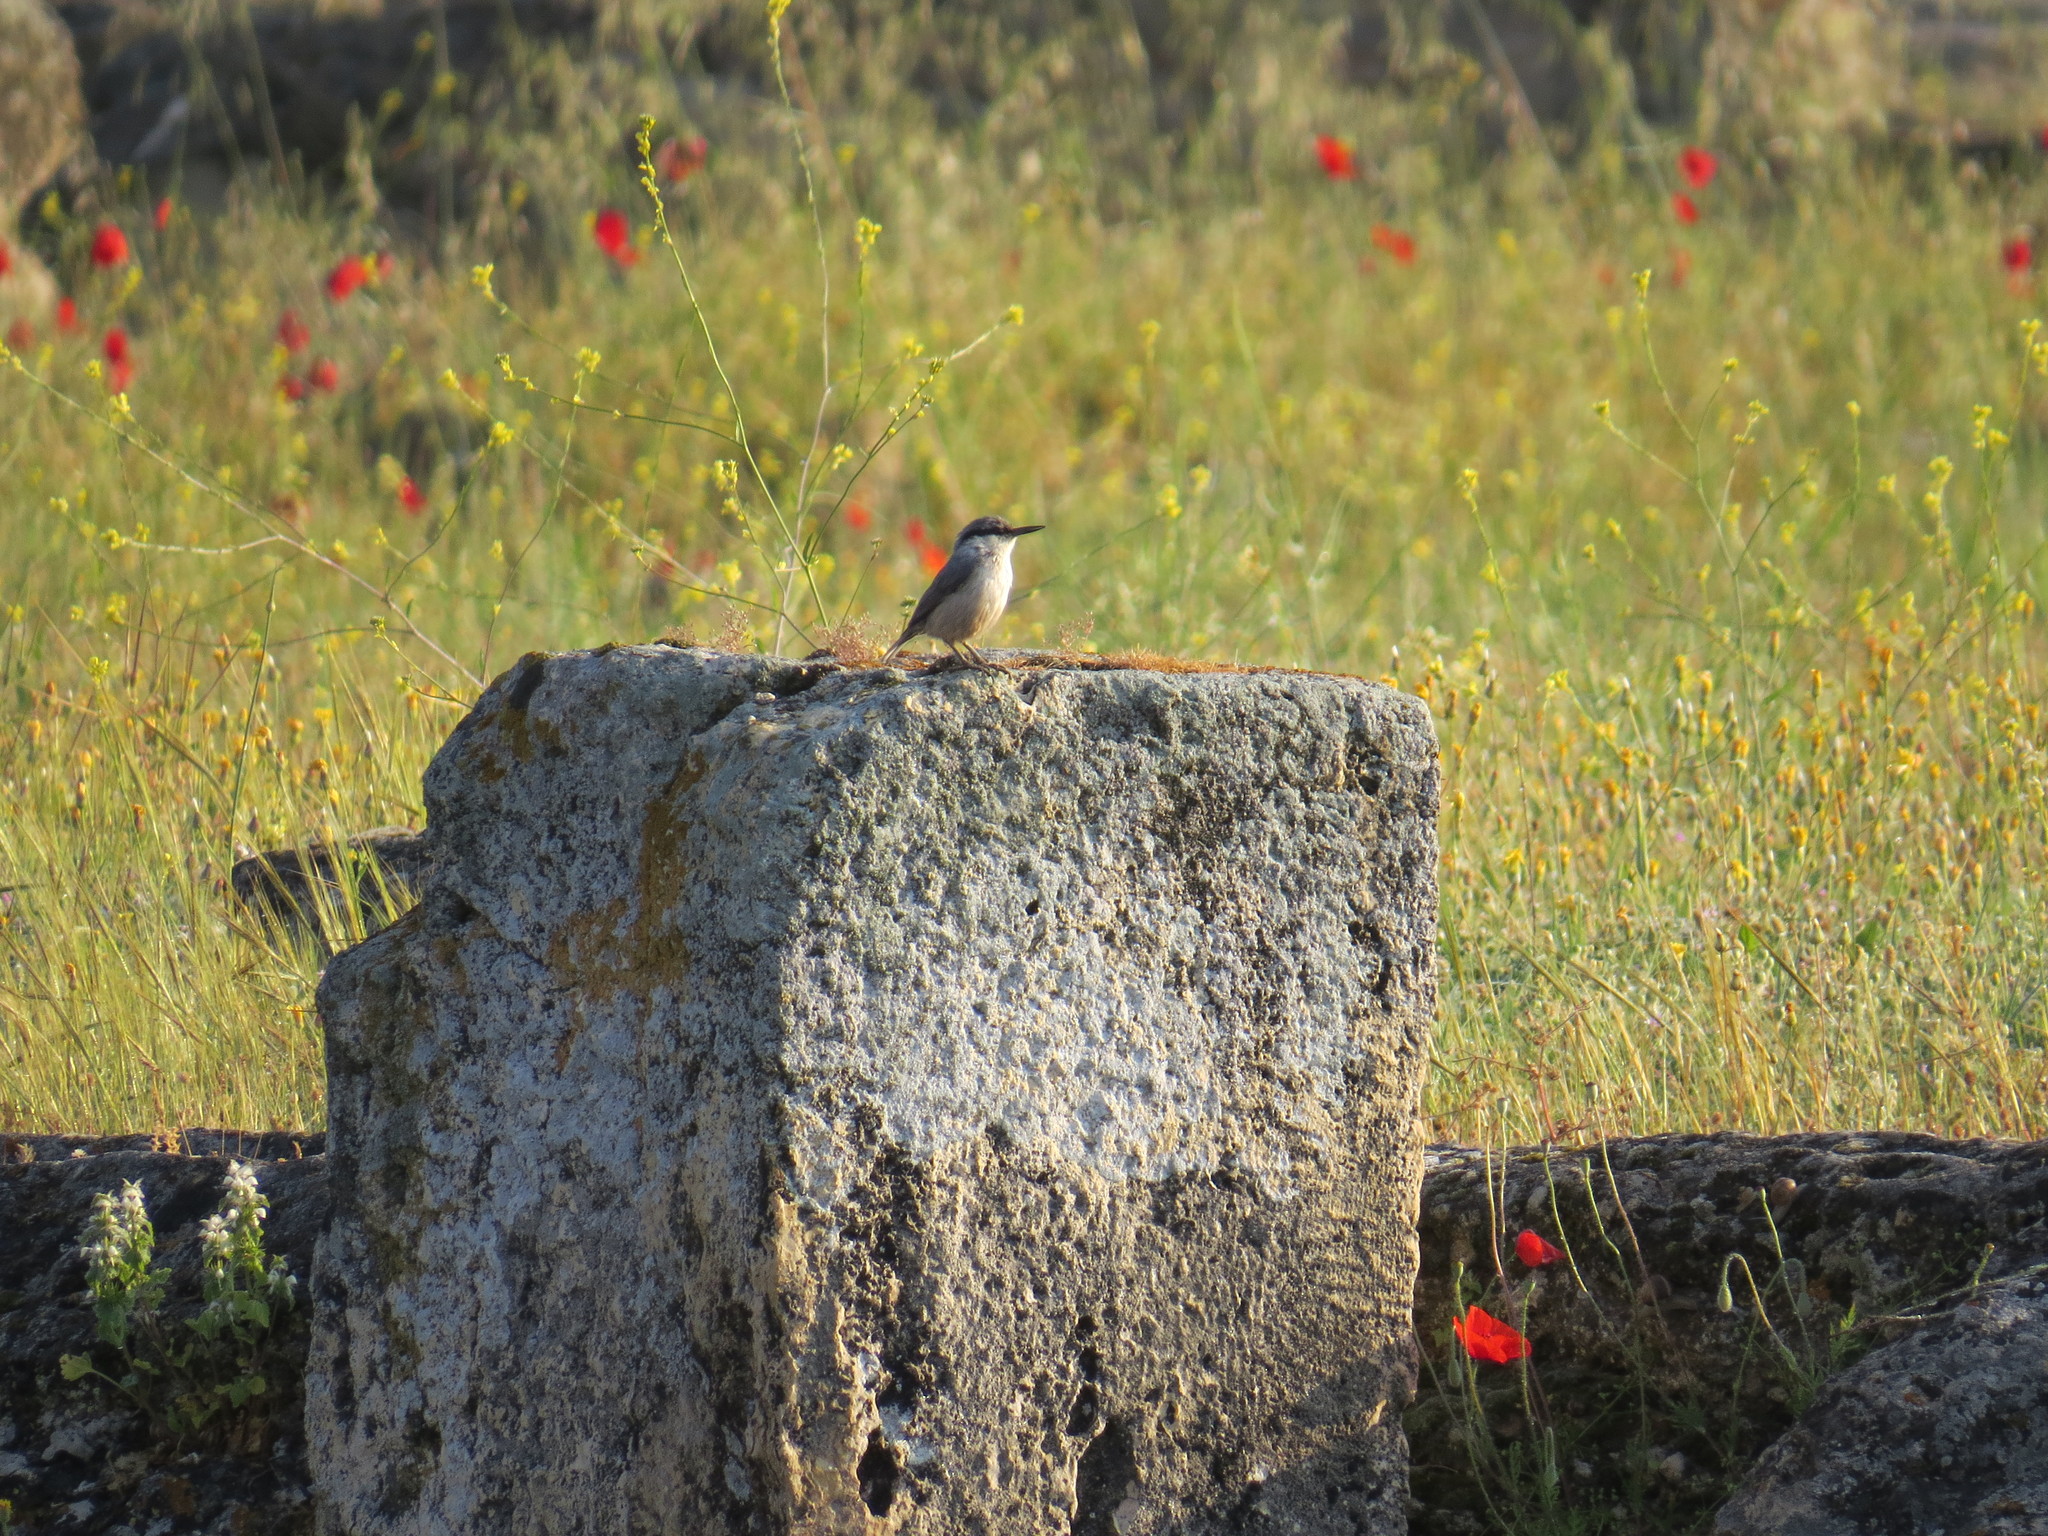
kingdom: Animalia
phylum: Chordata
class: Aves
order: Passeriformes
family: Sittidae
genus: Sitta
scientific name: Sitta neumayer
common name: Western rock nuthatch
